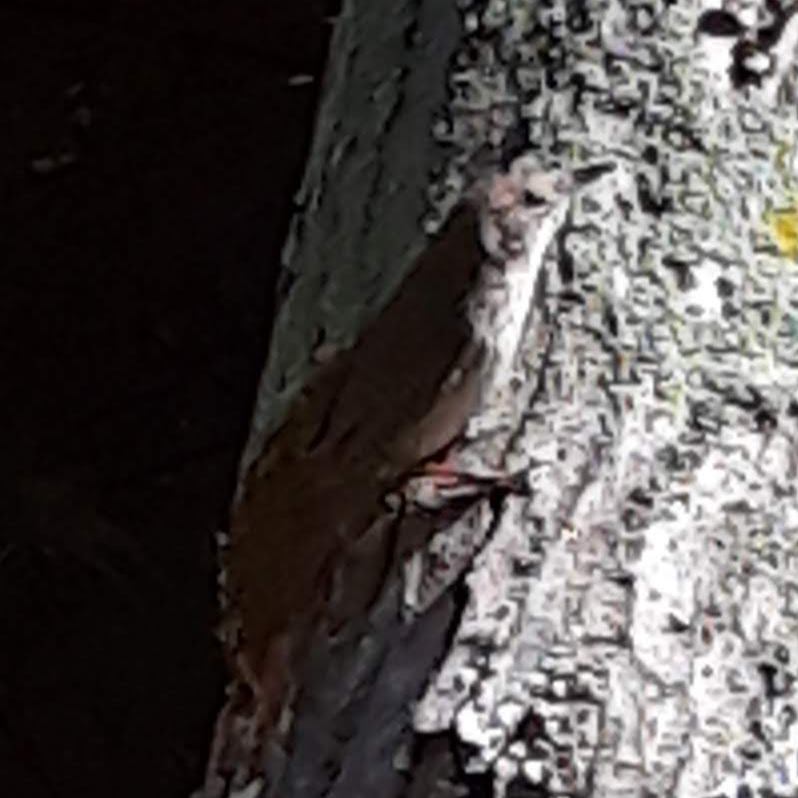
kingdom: Animalia
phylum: Chordata
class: Aves
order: Passeriformes
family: Troglodytidae
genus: Thryothorus
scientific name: Thryothorus ludovicianus
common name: Carolina wren
